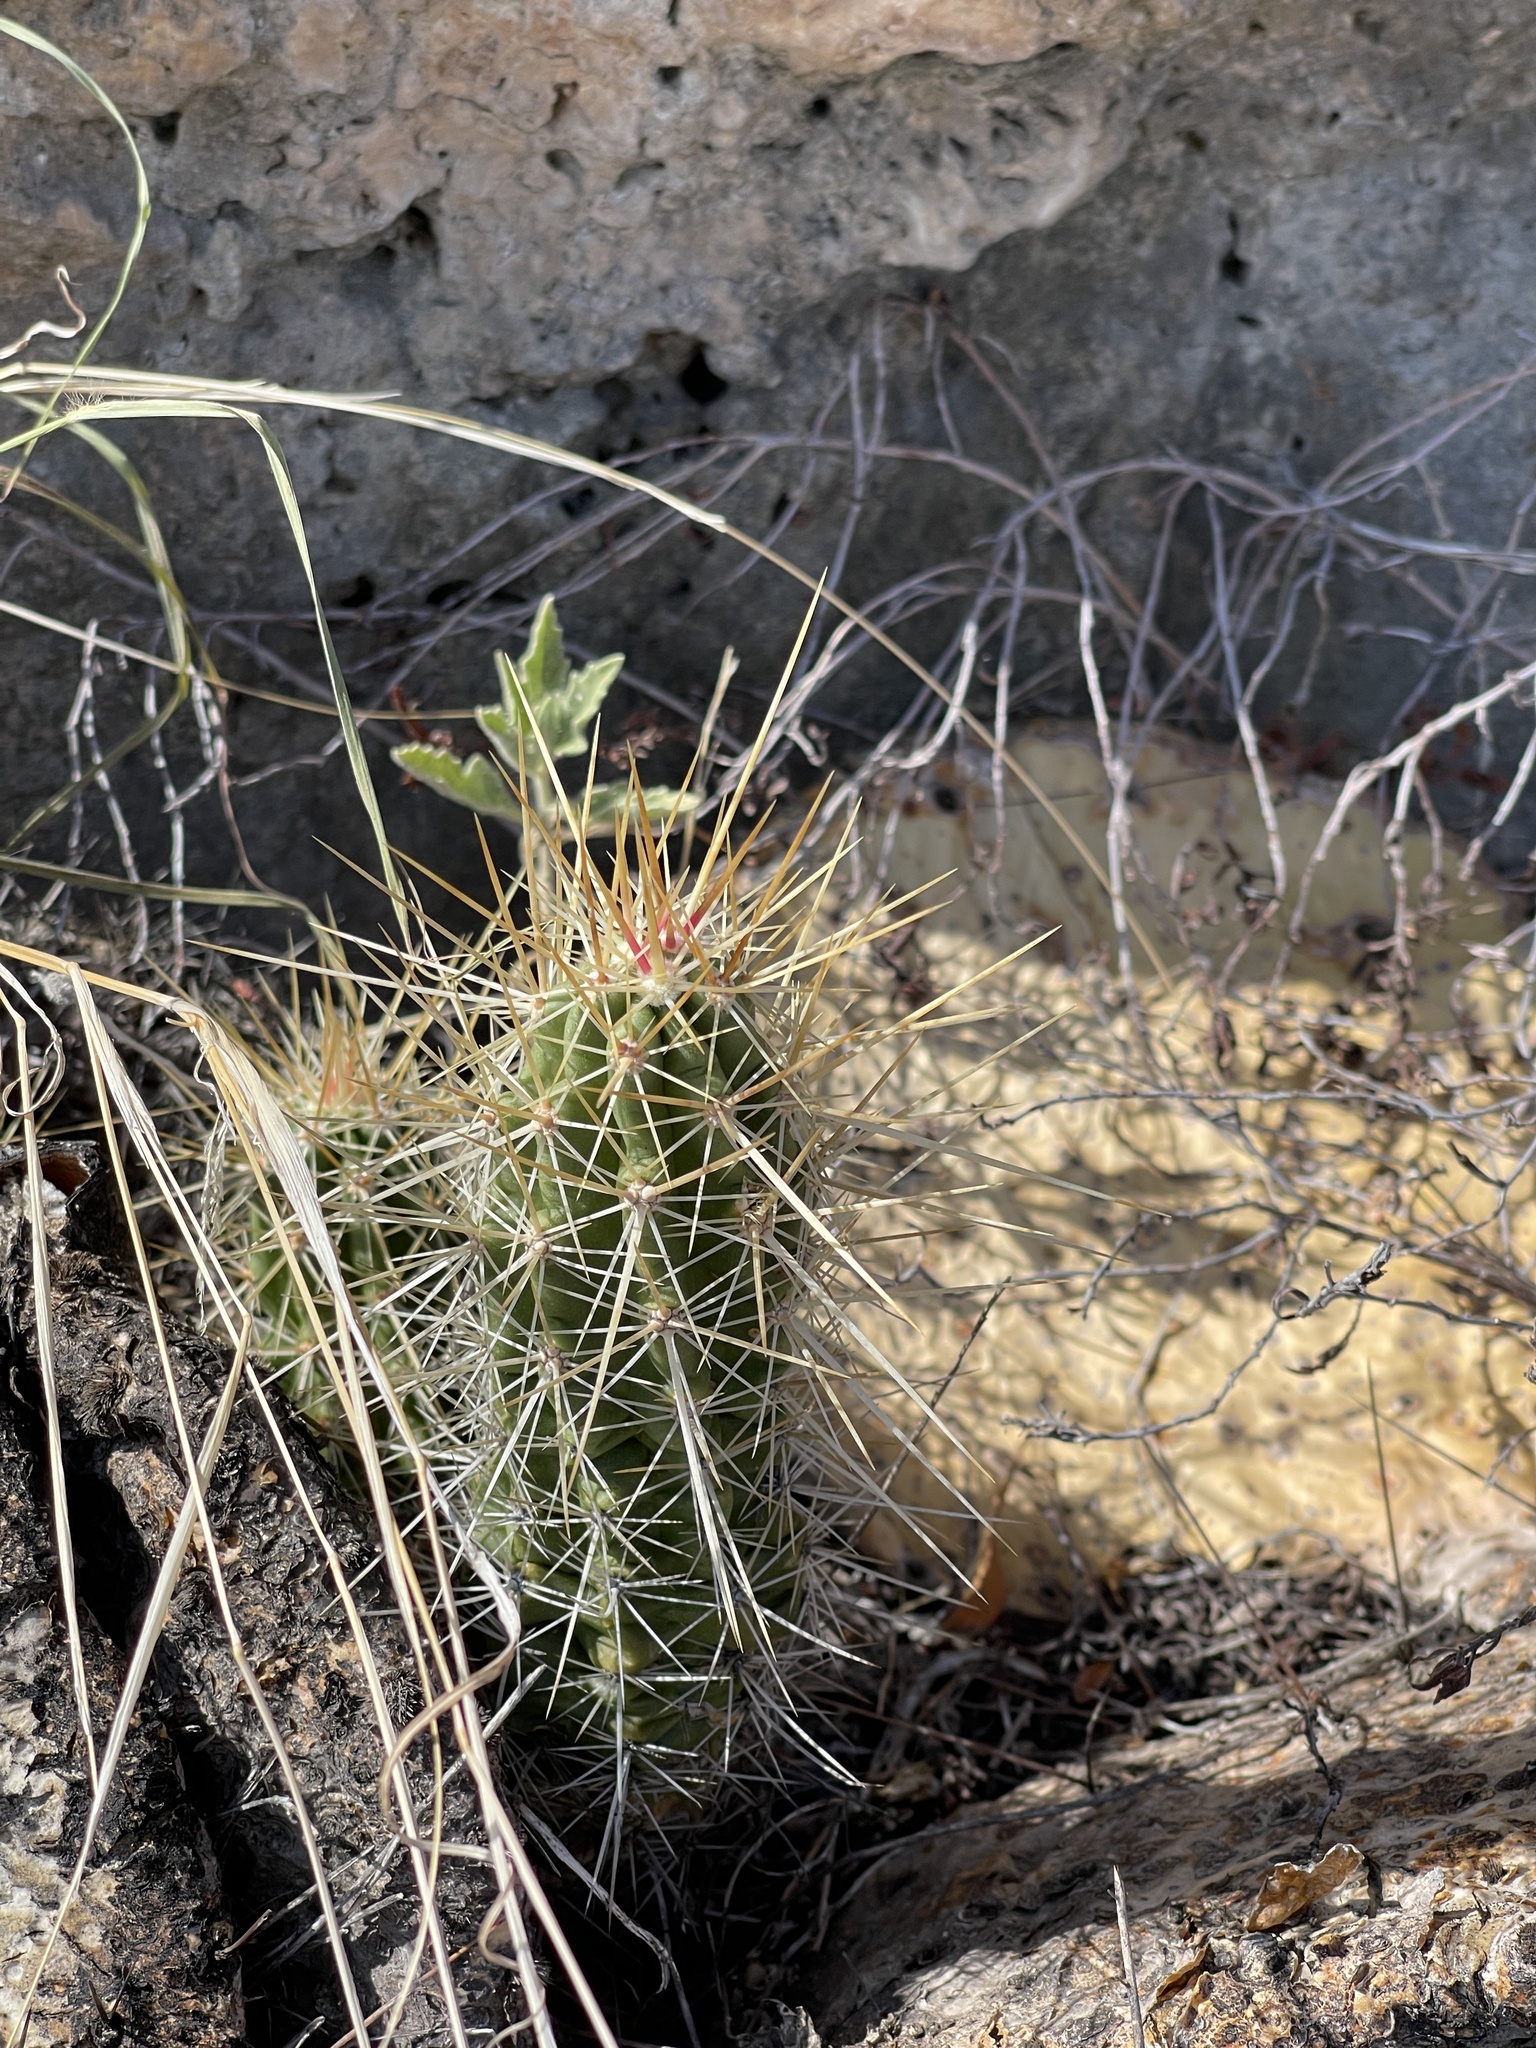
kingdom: Plantae
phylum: Tracheophyta
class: Magnoliopsida
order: Caryophyllales
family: Cactaceae
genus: Echinocereus
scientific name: Echinocereus enneacanthus
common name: Pitaya
